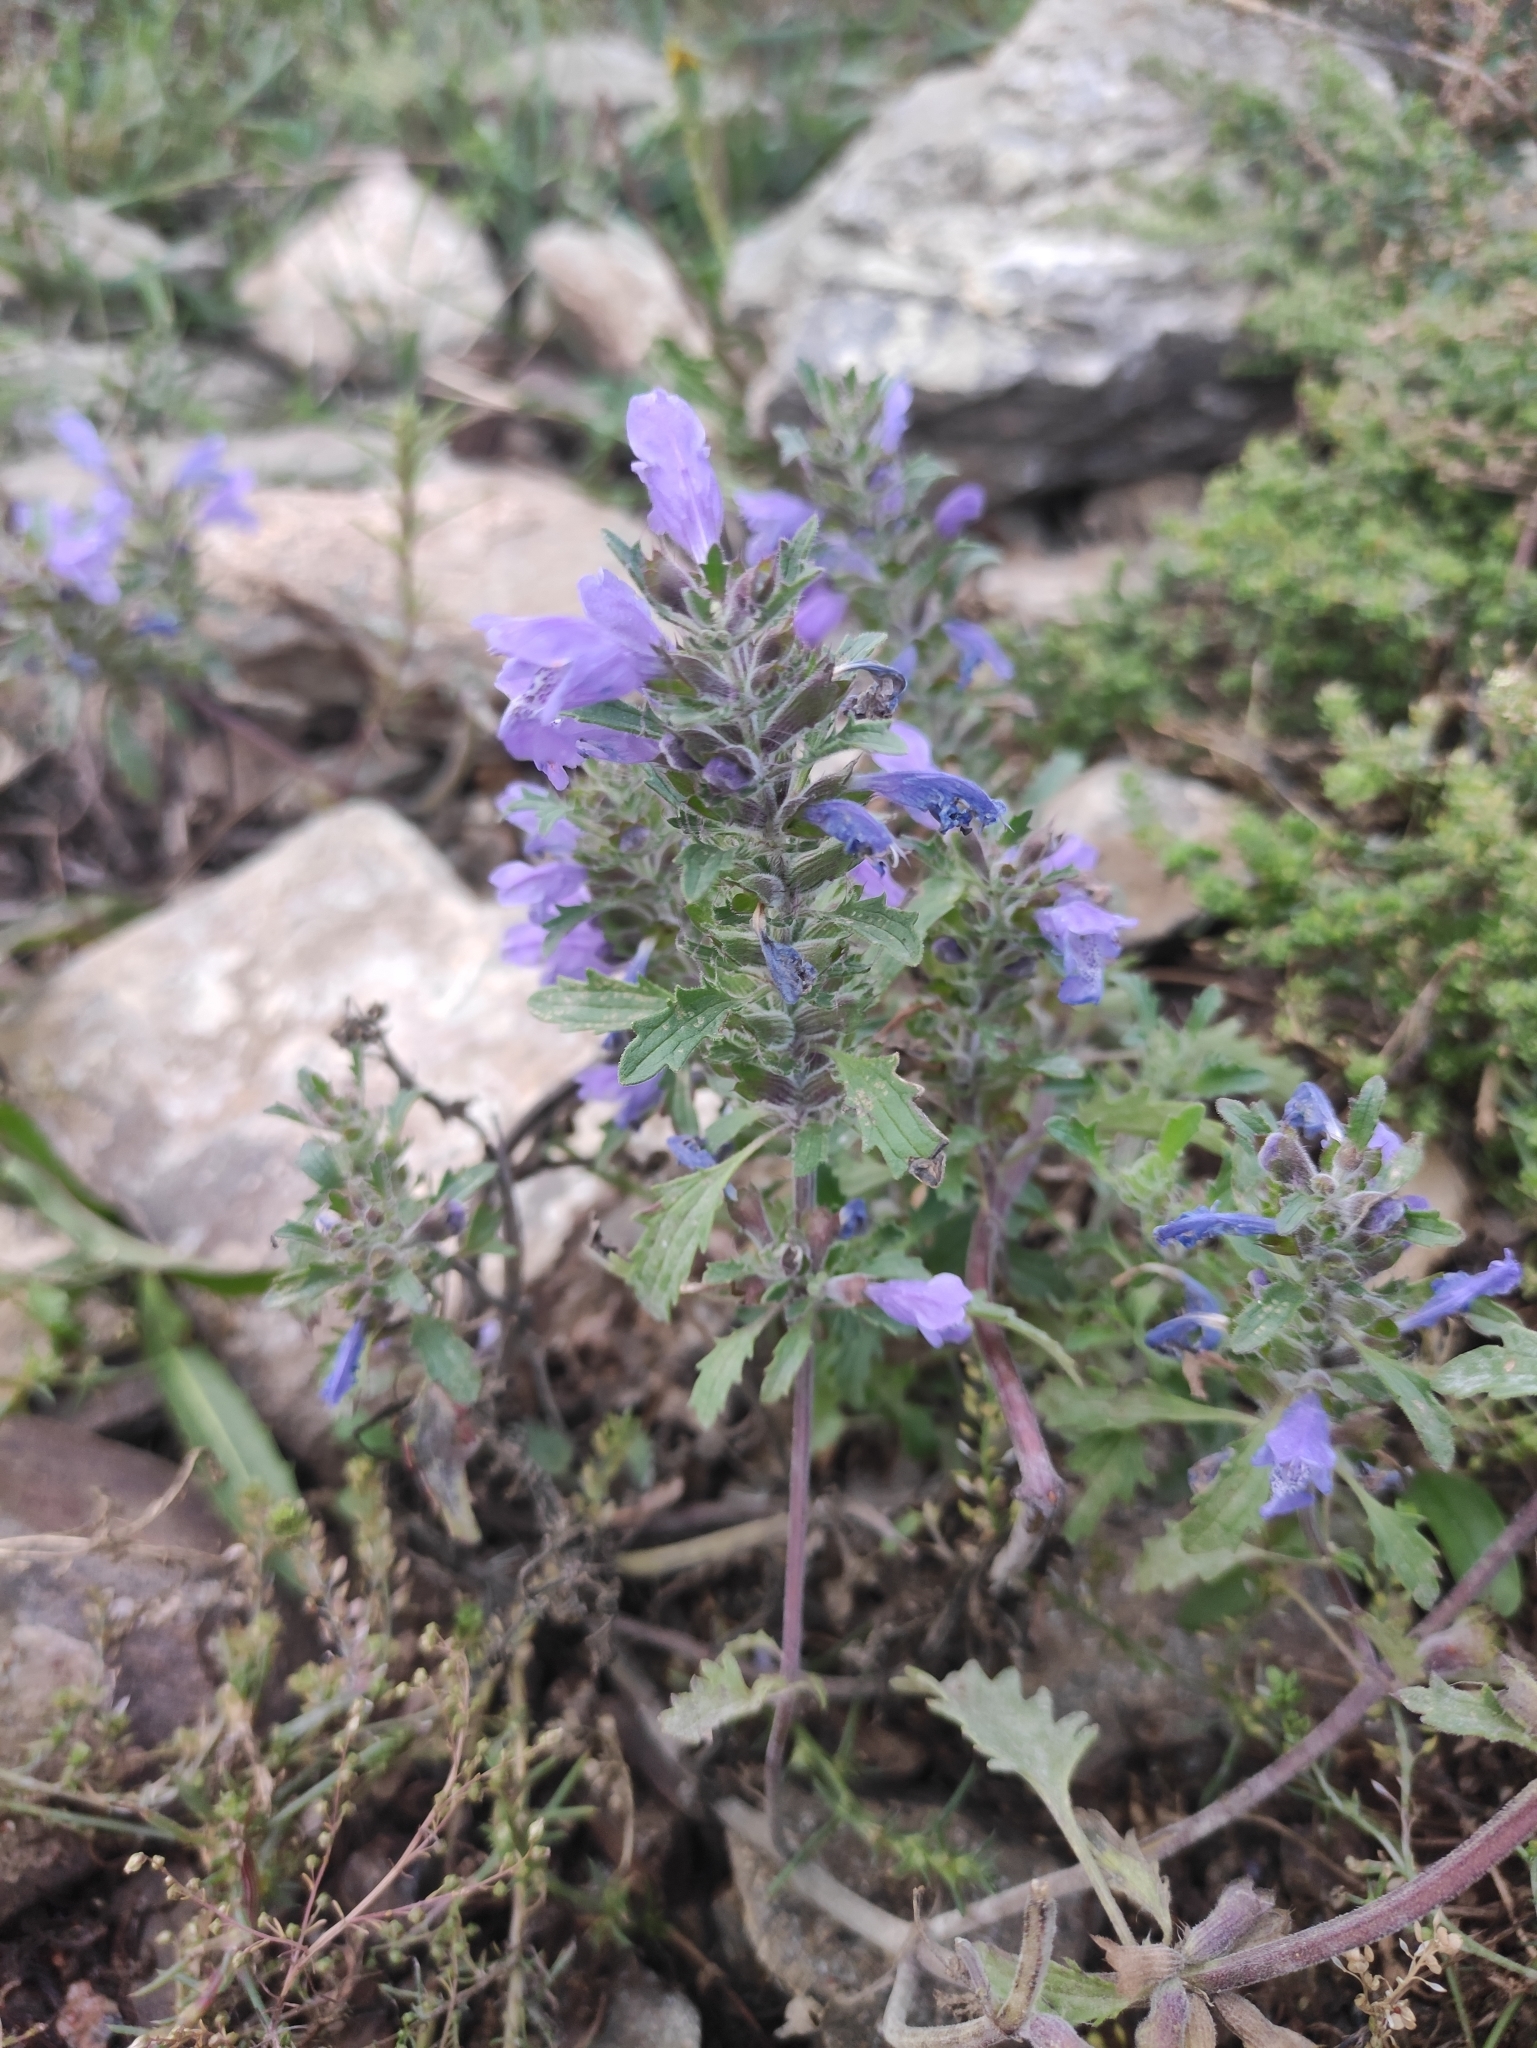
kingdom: Plantae
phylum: Tracheophyta
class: Magnoliopsida
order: Lamiales
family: Lamiaceae
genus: Dracocephalum
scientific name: Dracocephalum olchonense
